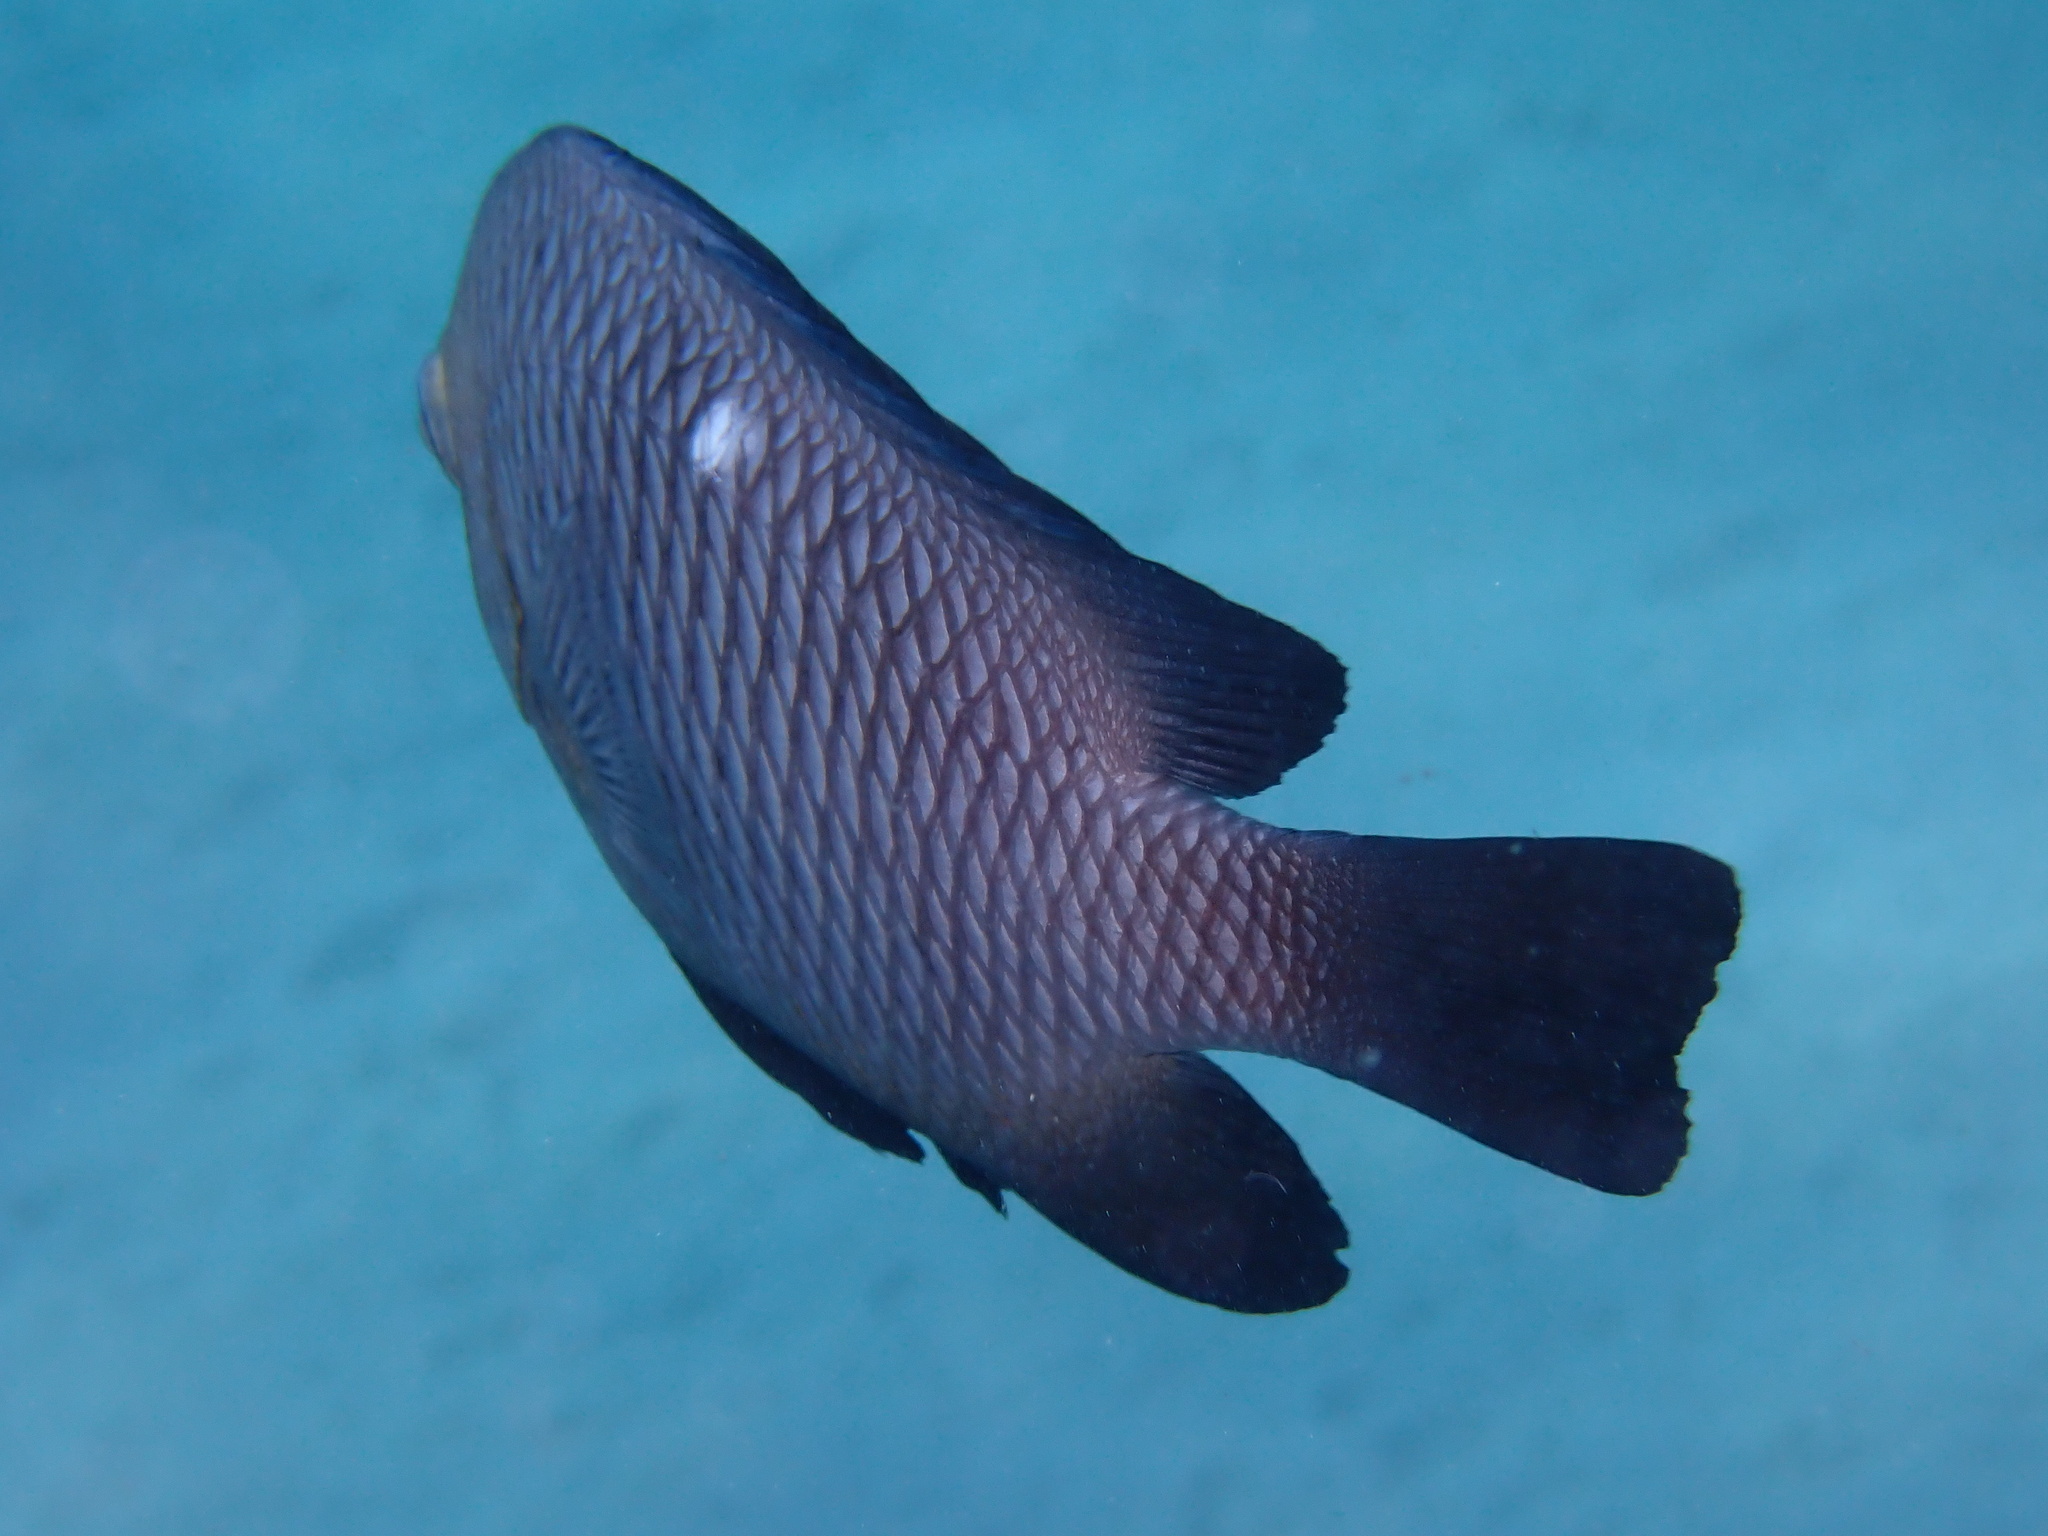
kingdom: Animalia
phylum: Chordata
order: Perciformes
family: Pomacentridae
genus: Dascyllus
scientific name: Dascyllus trimaculatus
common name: Threespot dascyllus
